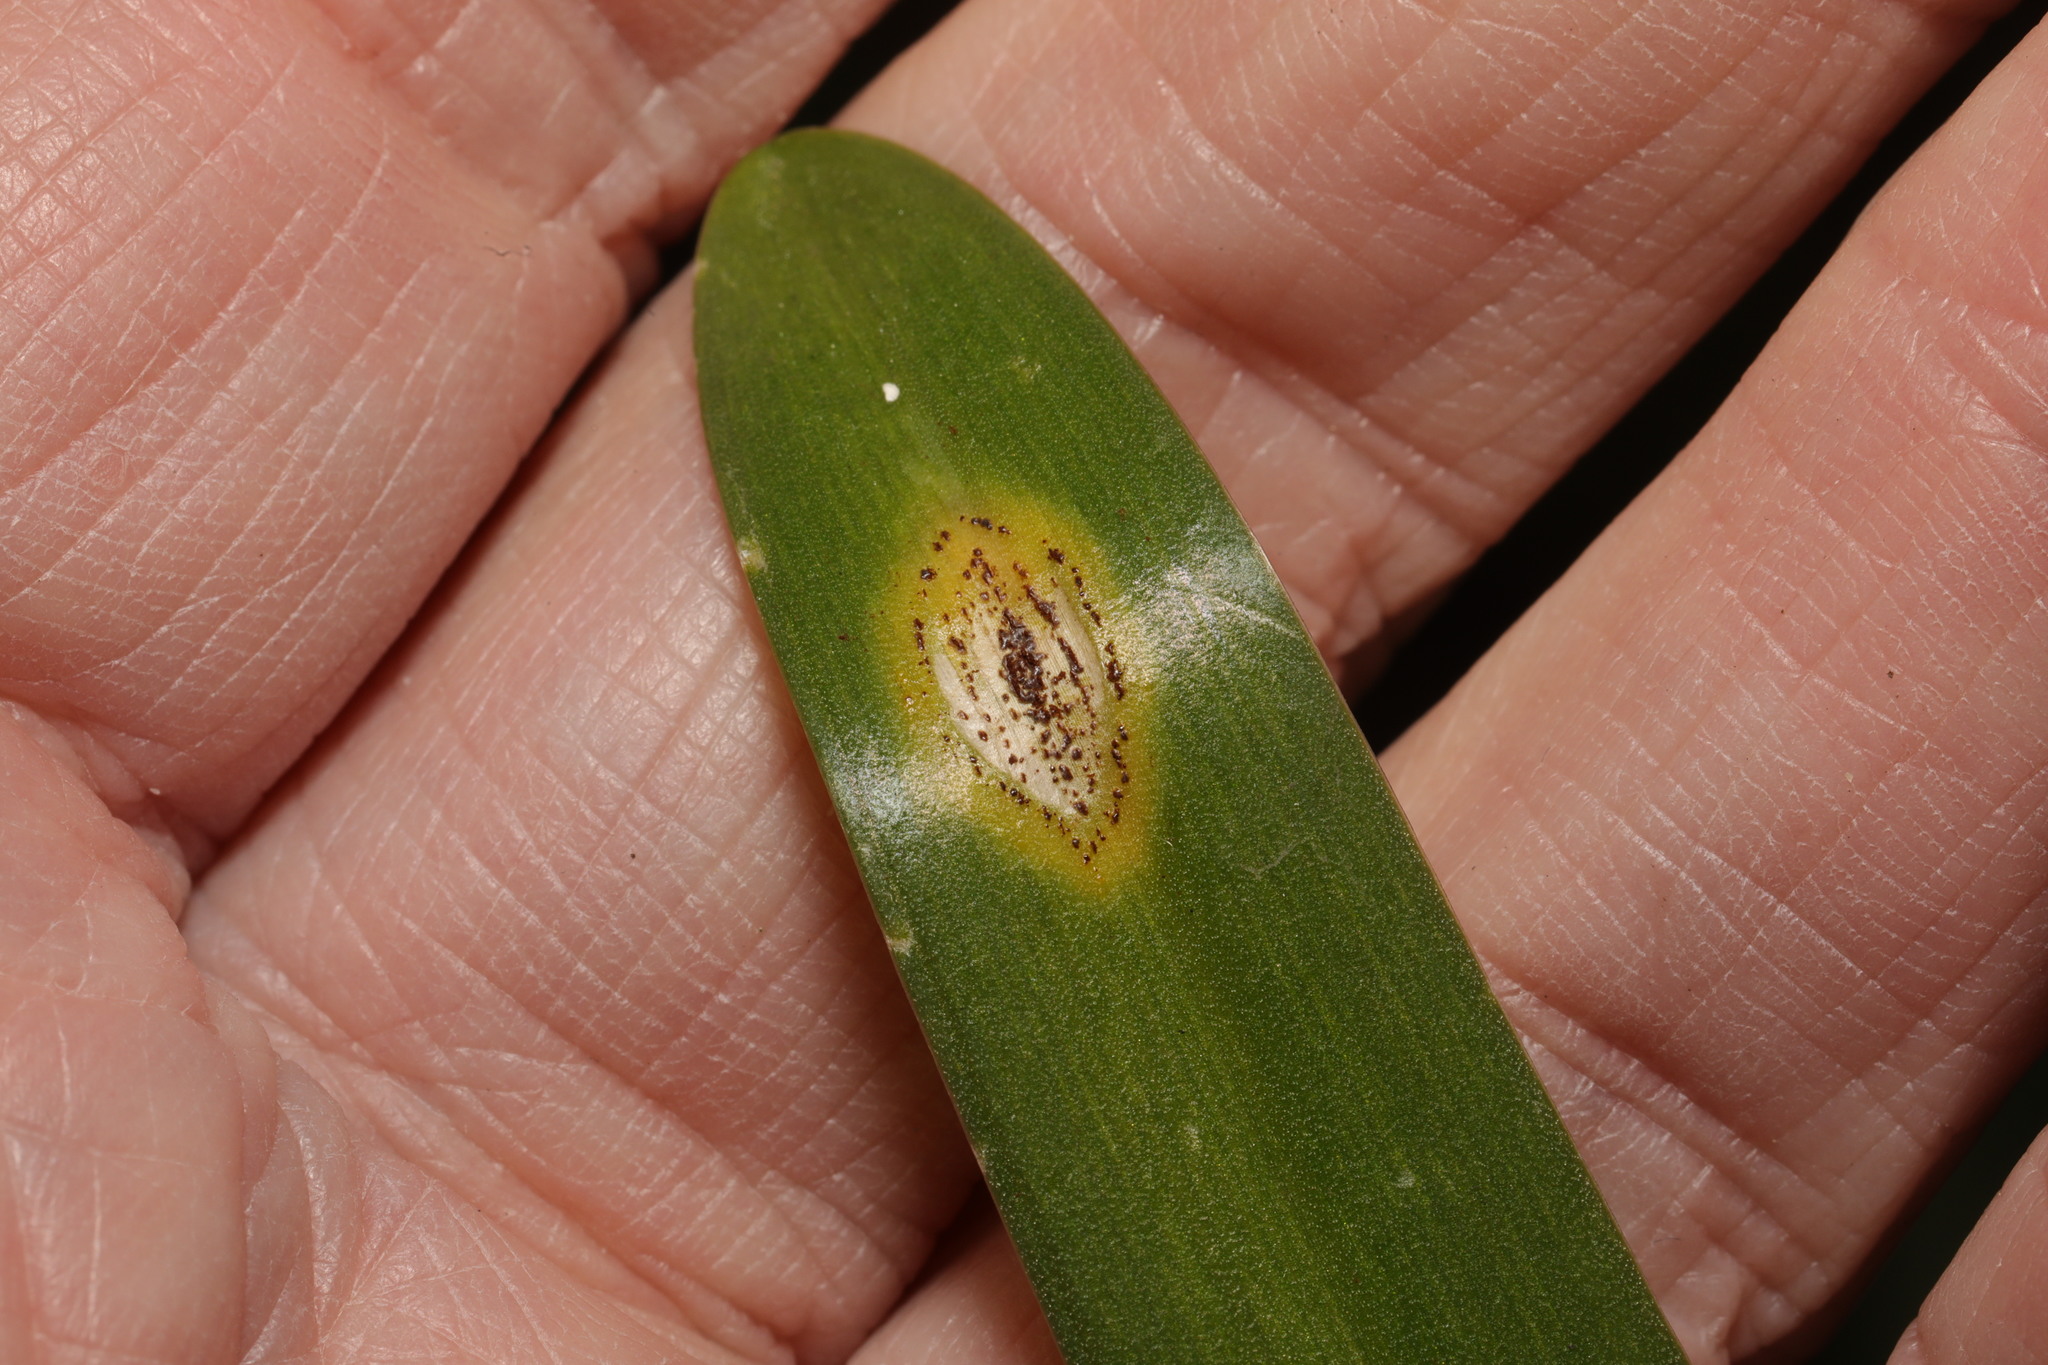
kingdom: Fungi
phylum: Basidiomycota
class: Pucciniomycetes
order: Pucciniales
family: Pucciniaceae
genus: Uromyces
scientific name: Uromyces hyacinthi
